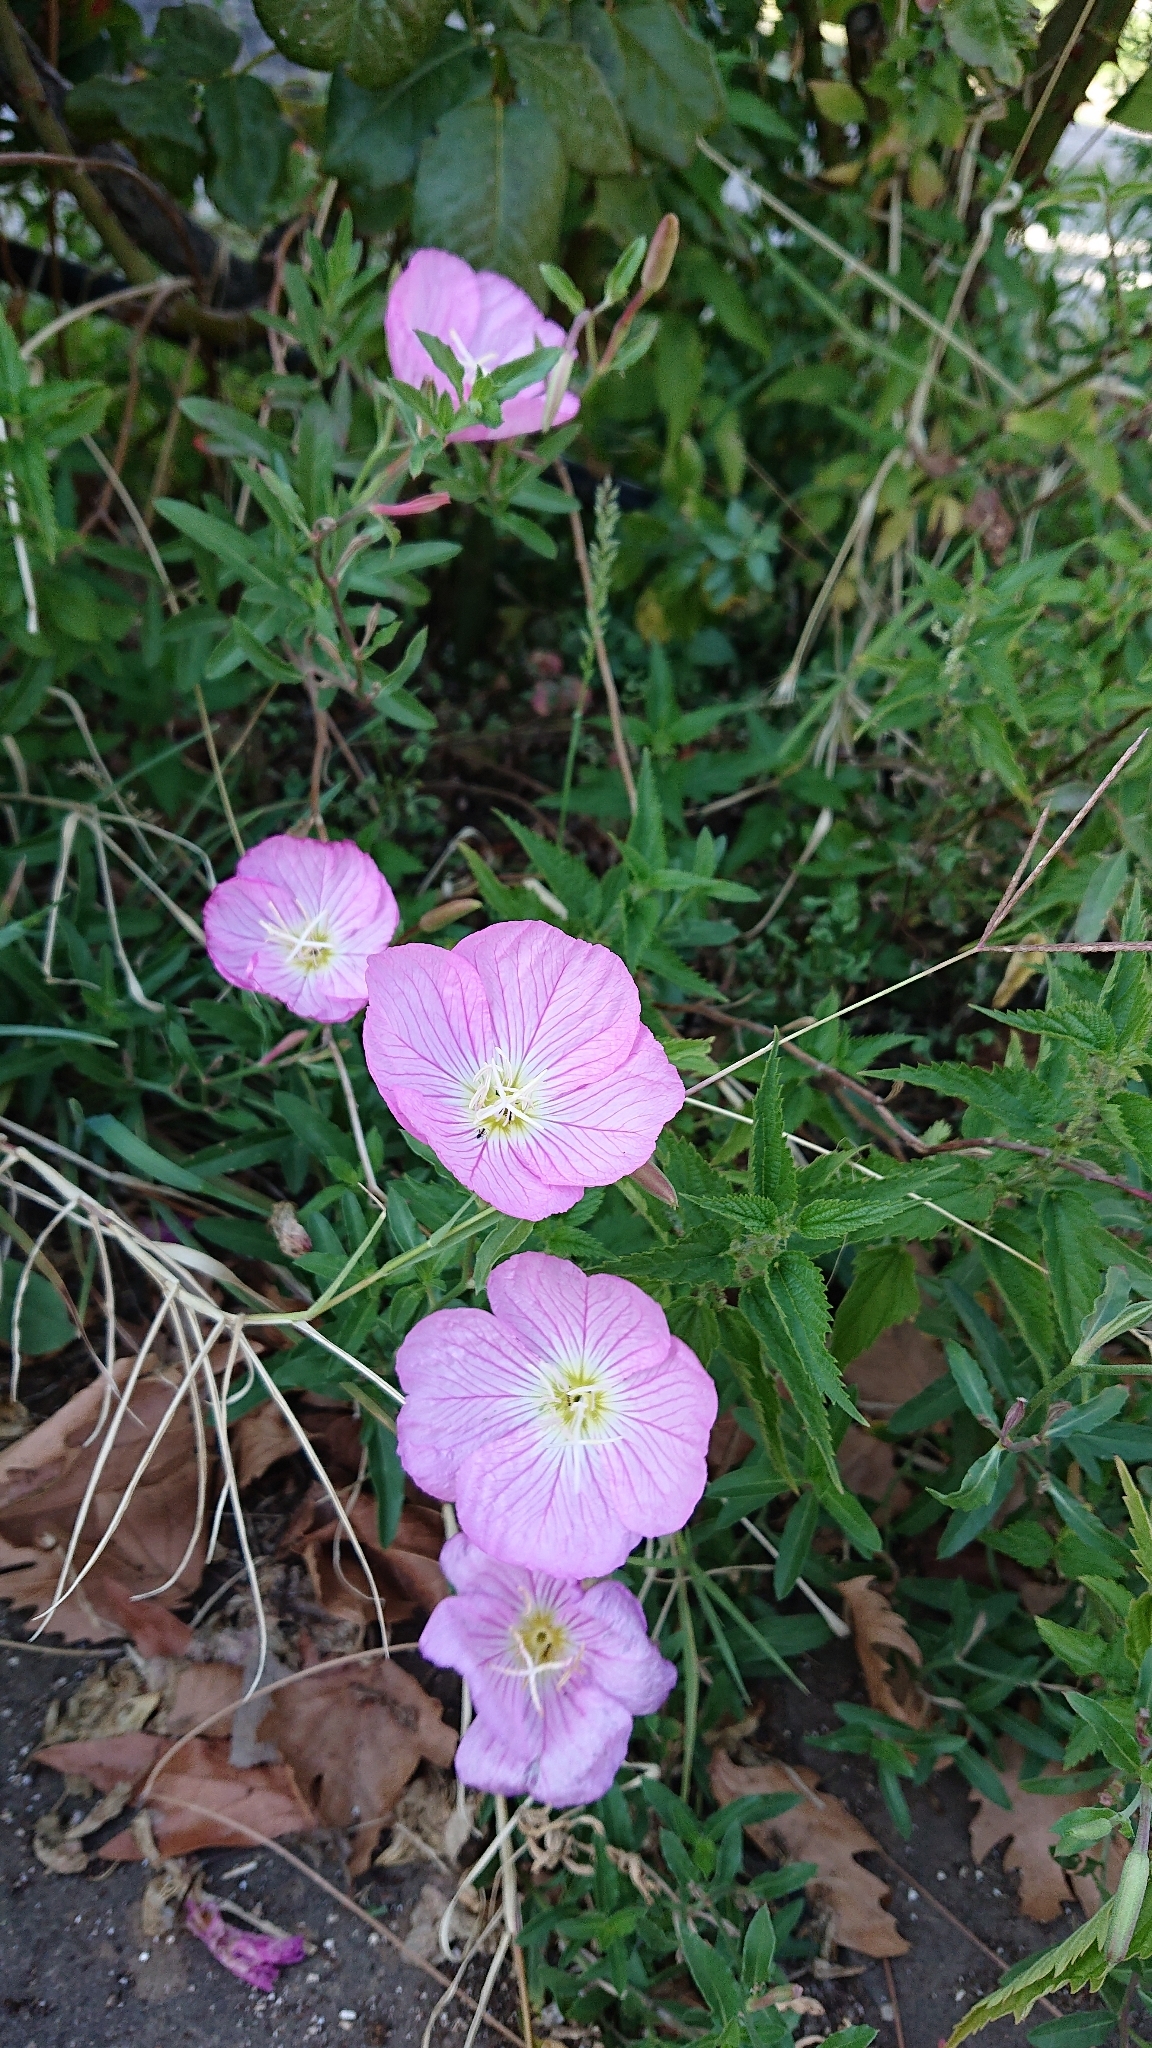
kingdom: Plantae
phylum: Tracheophyta
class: Magnoliopsida
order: Myrtales
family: Onagraceae
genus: Oenothera
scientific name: Oenothera speciosa
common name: White evening-primrose
